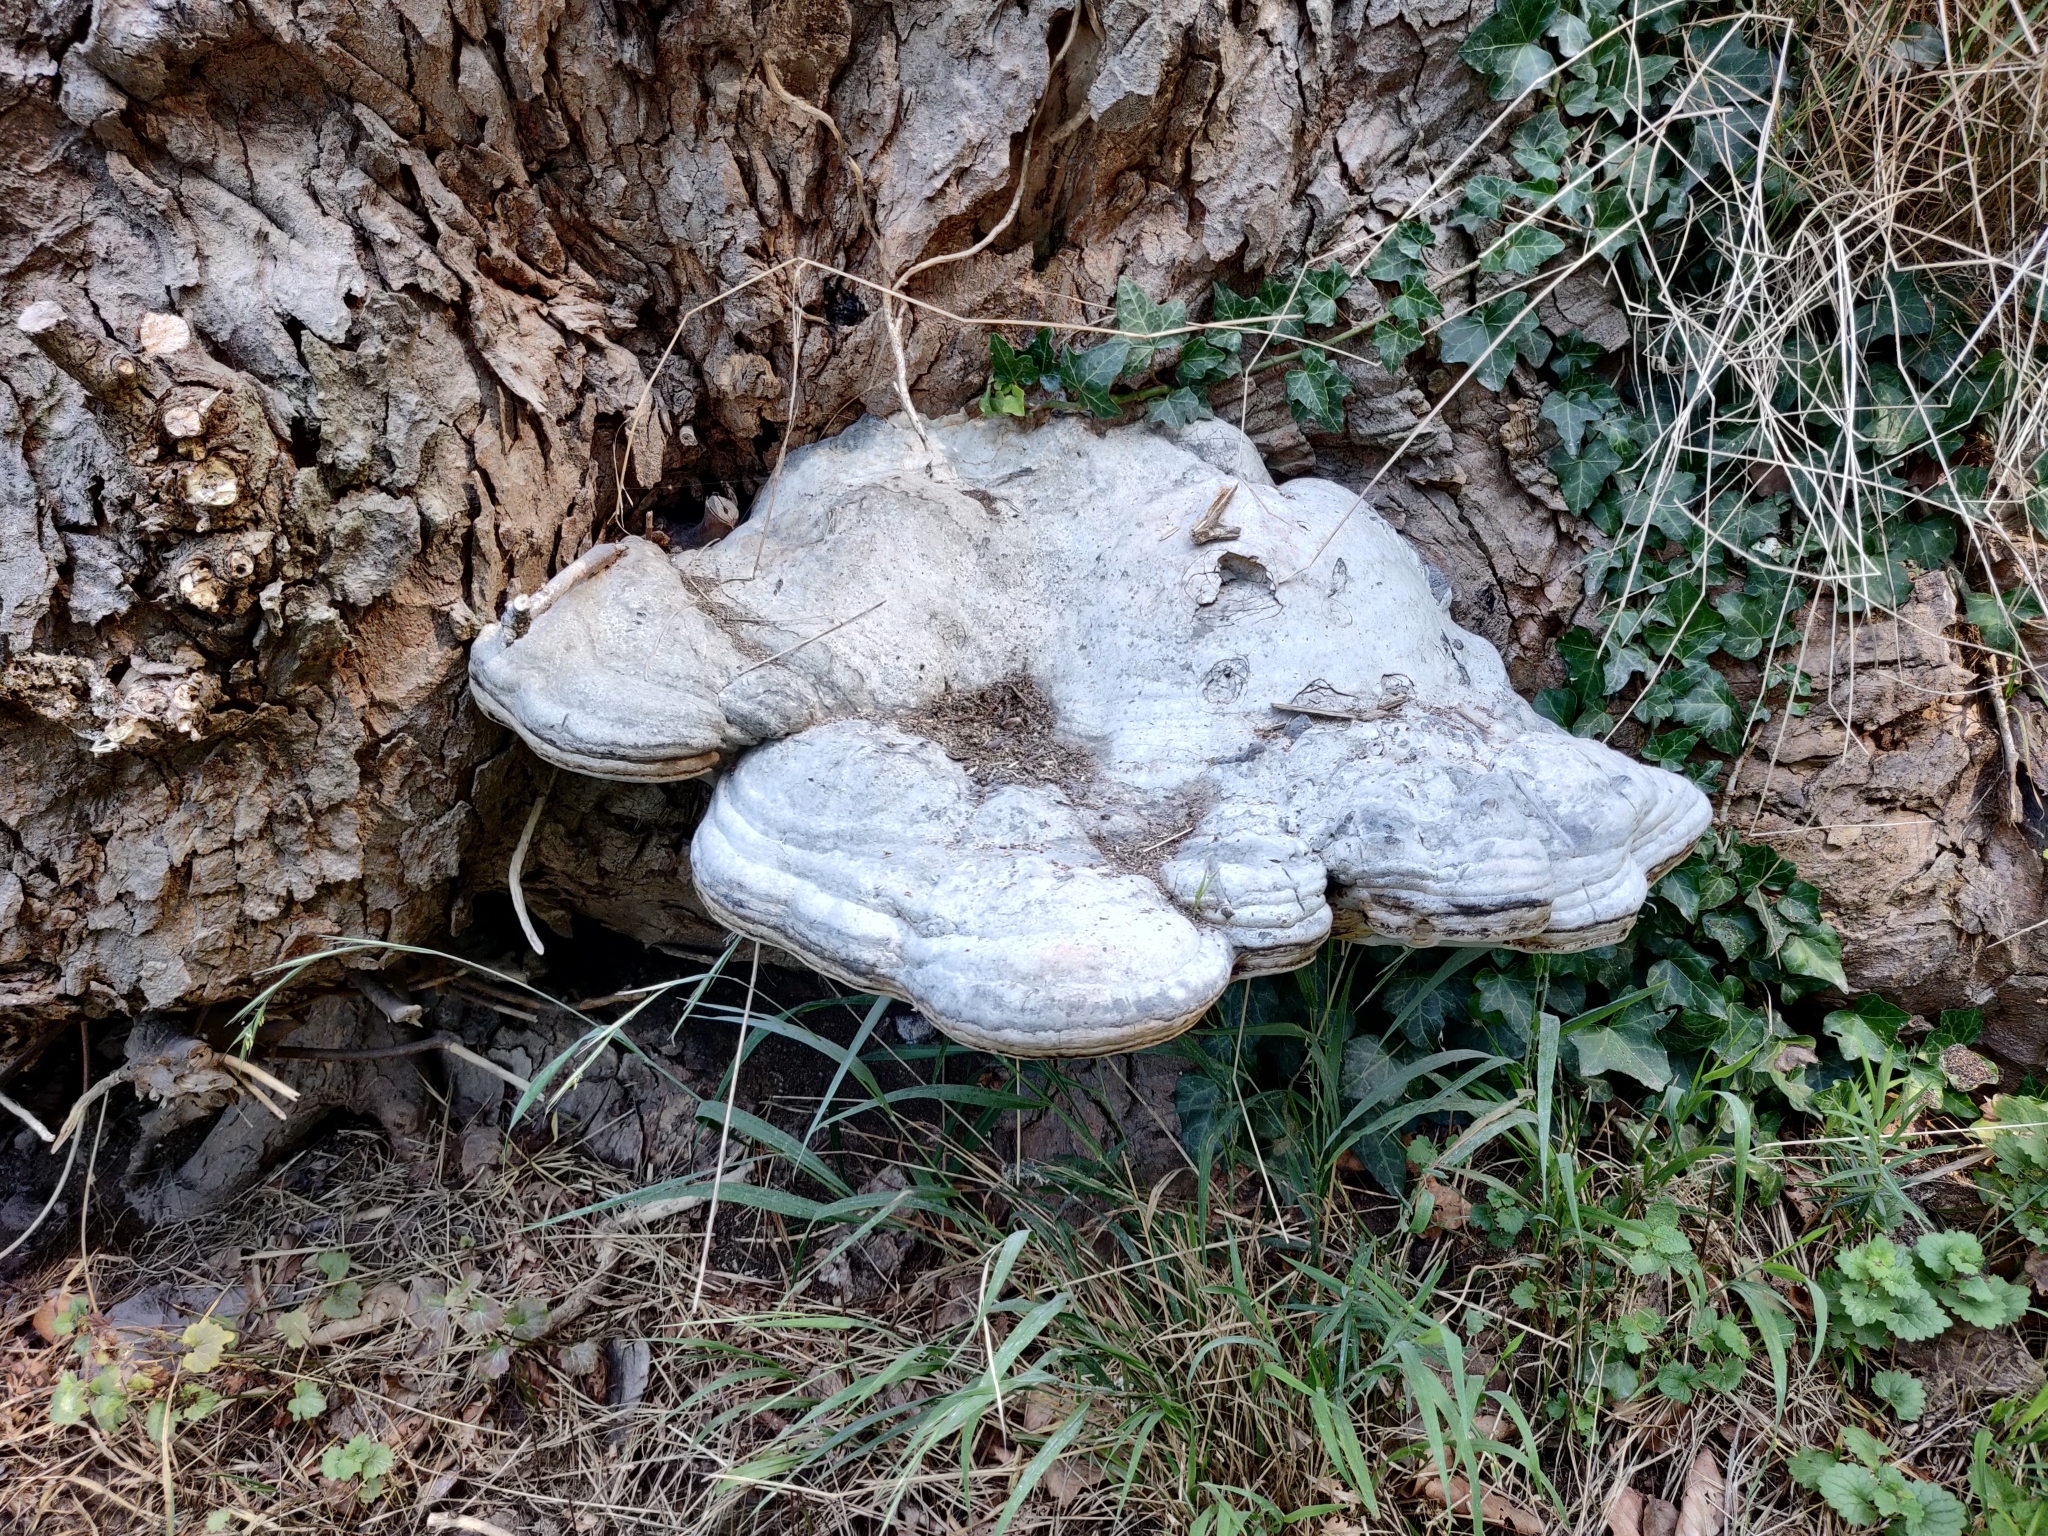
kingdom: Fungi
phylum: Basidiomycota
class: Agaricomycetes
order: Polyporales
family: Polyporaceae
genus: Fomes
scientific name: Fomes fomentarius
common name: Hoof fungus
